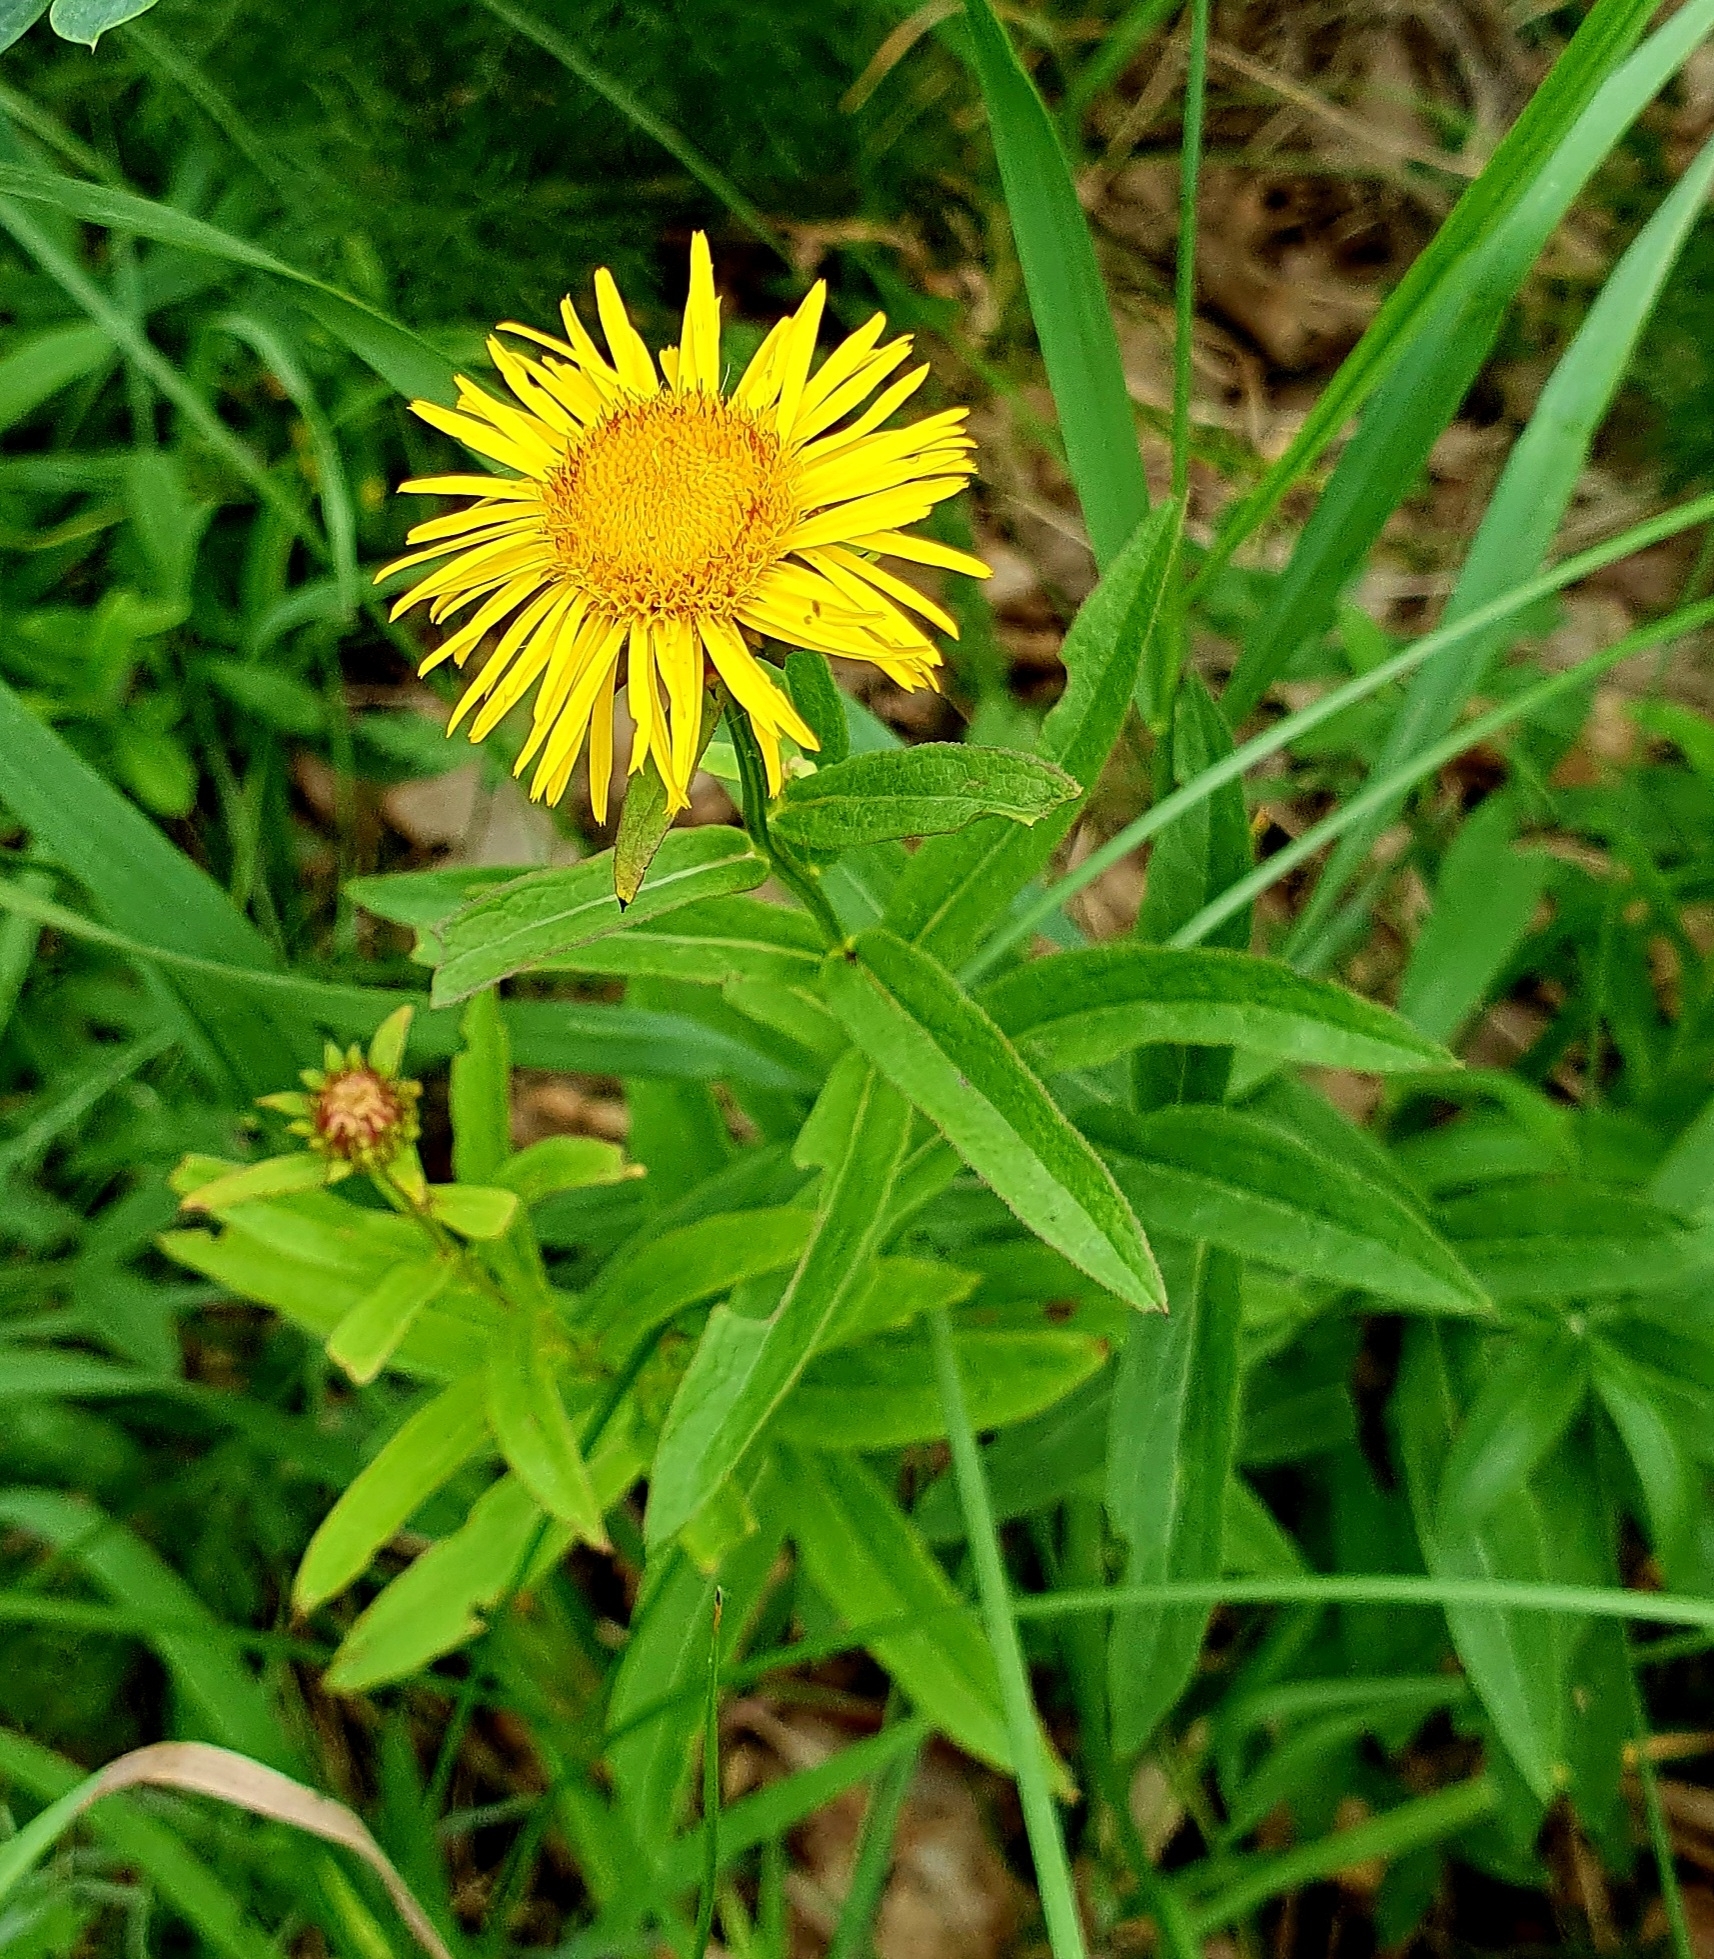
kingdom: Plantae
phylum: Tracheophyta
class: Magnoliopsida
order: Asterales
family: Asteraceae
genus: Pentanema
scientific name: Pentanema salicinum
